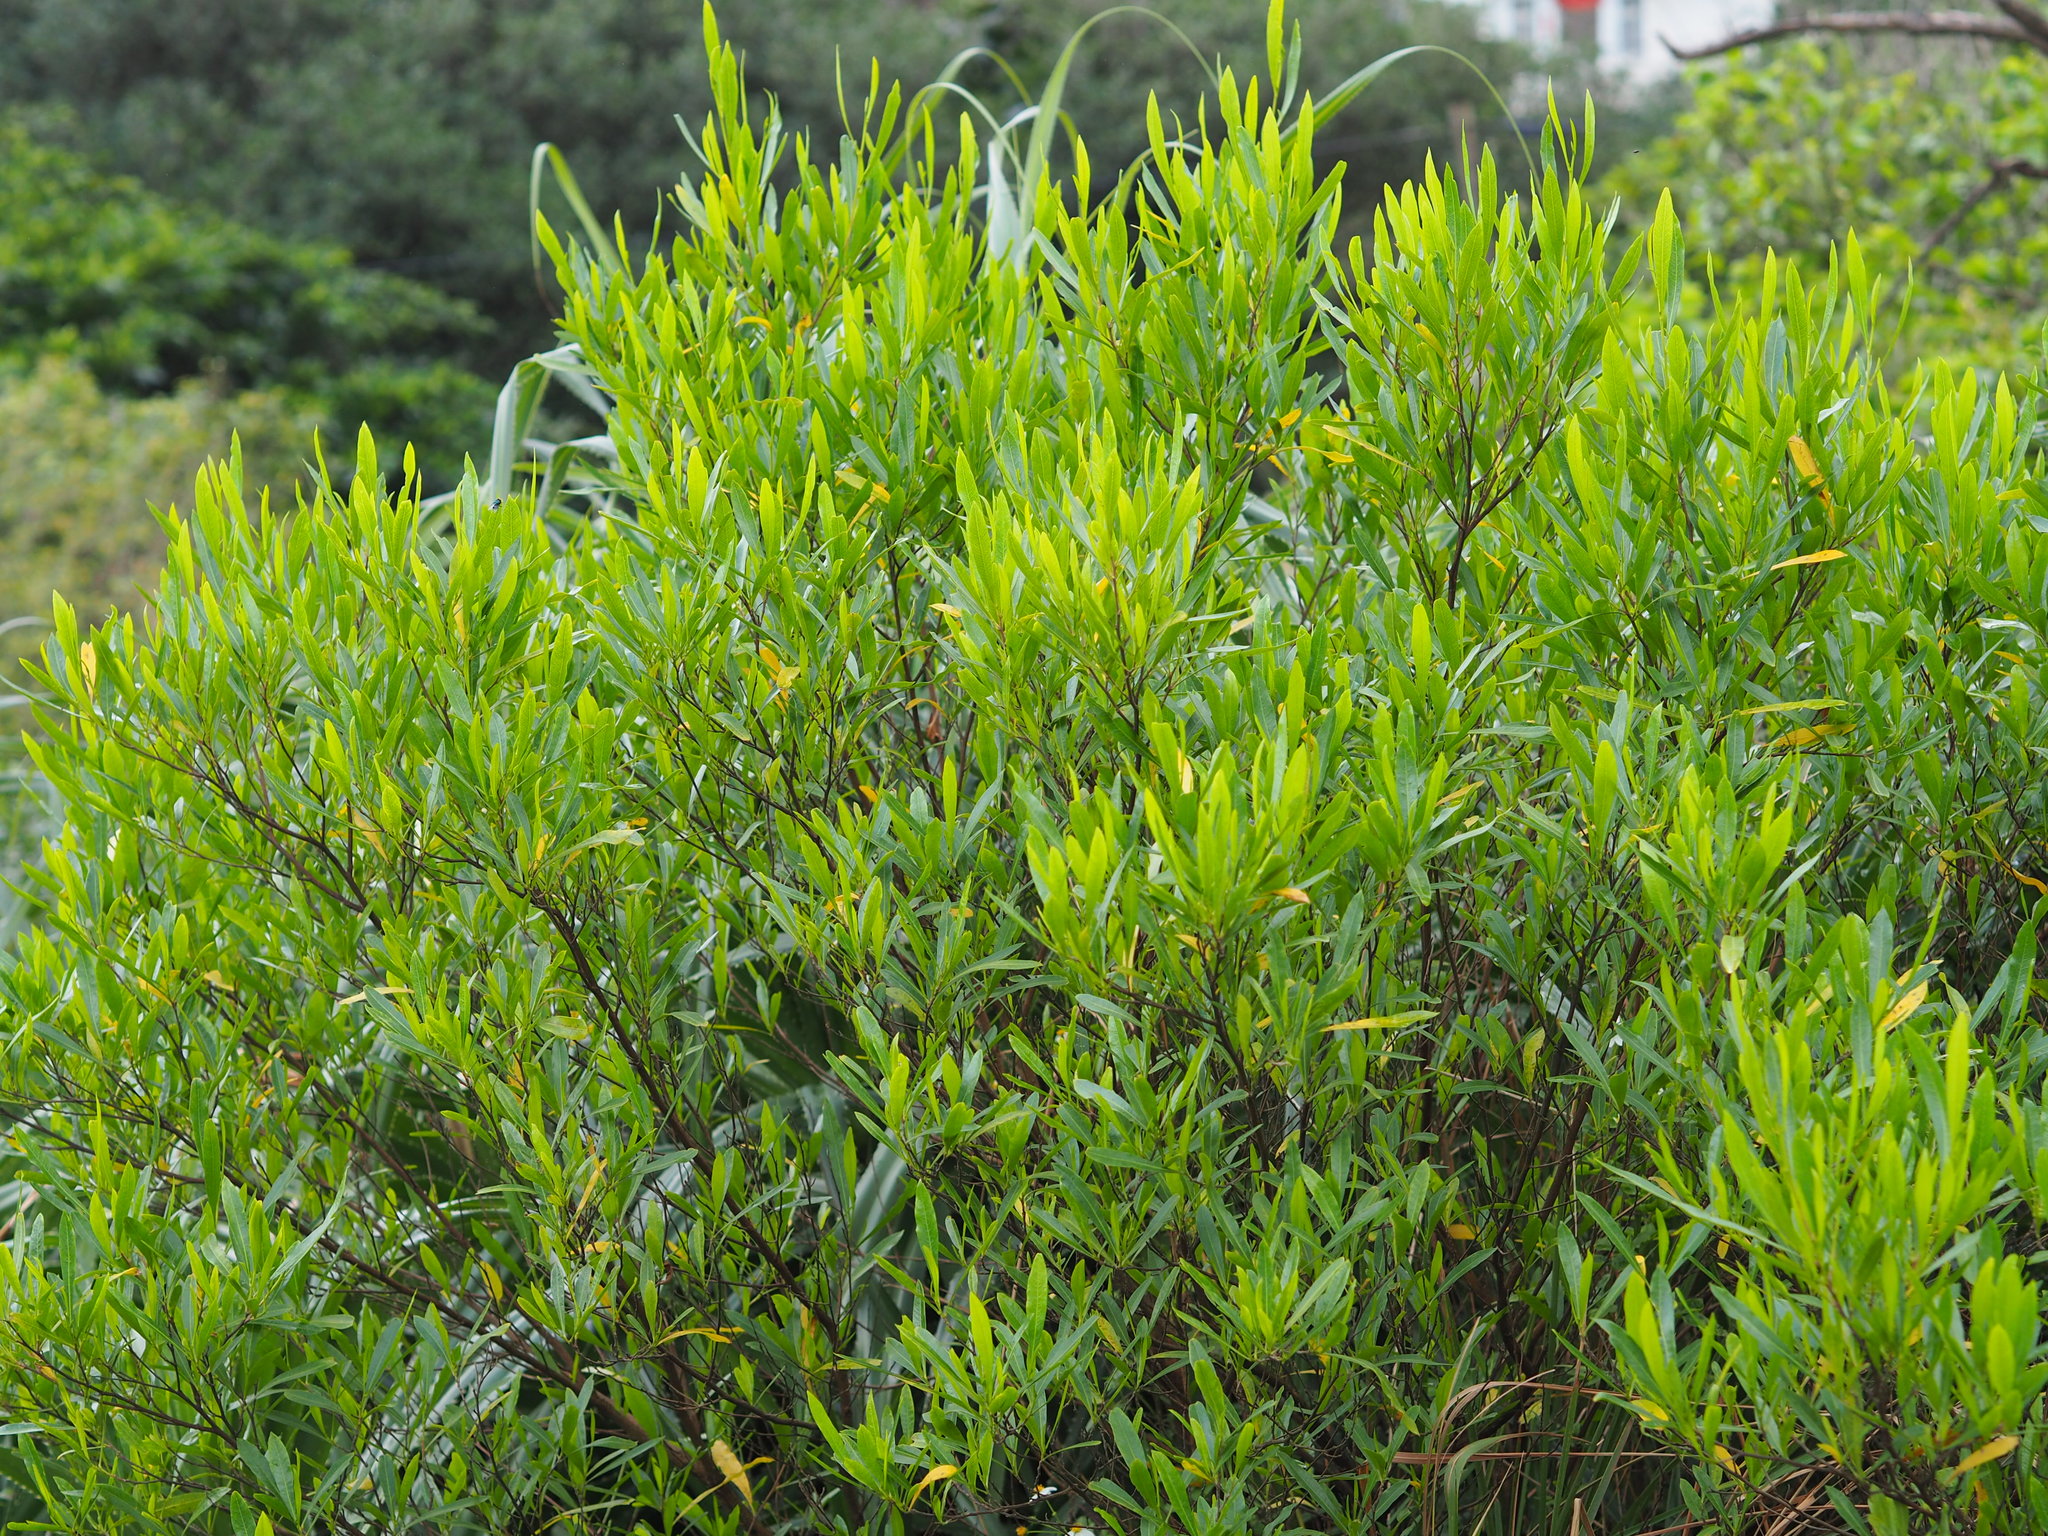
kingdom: Plantae
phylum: Tracheophyta
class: Magnoliopsida
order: Sapindales
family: Sapindaceae
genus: Dodonaea
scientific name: Dodonaea viscosa
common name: Hopbush
